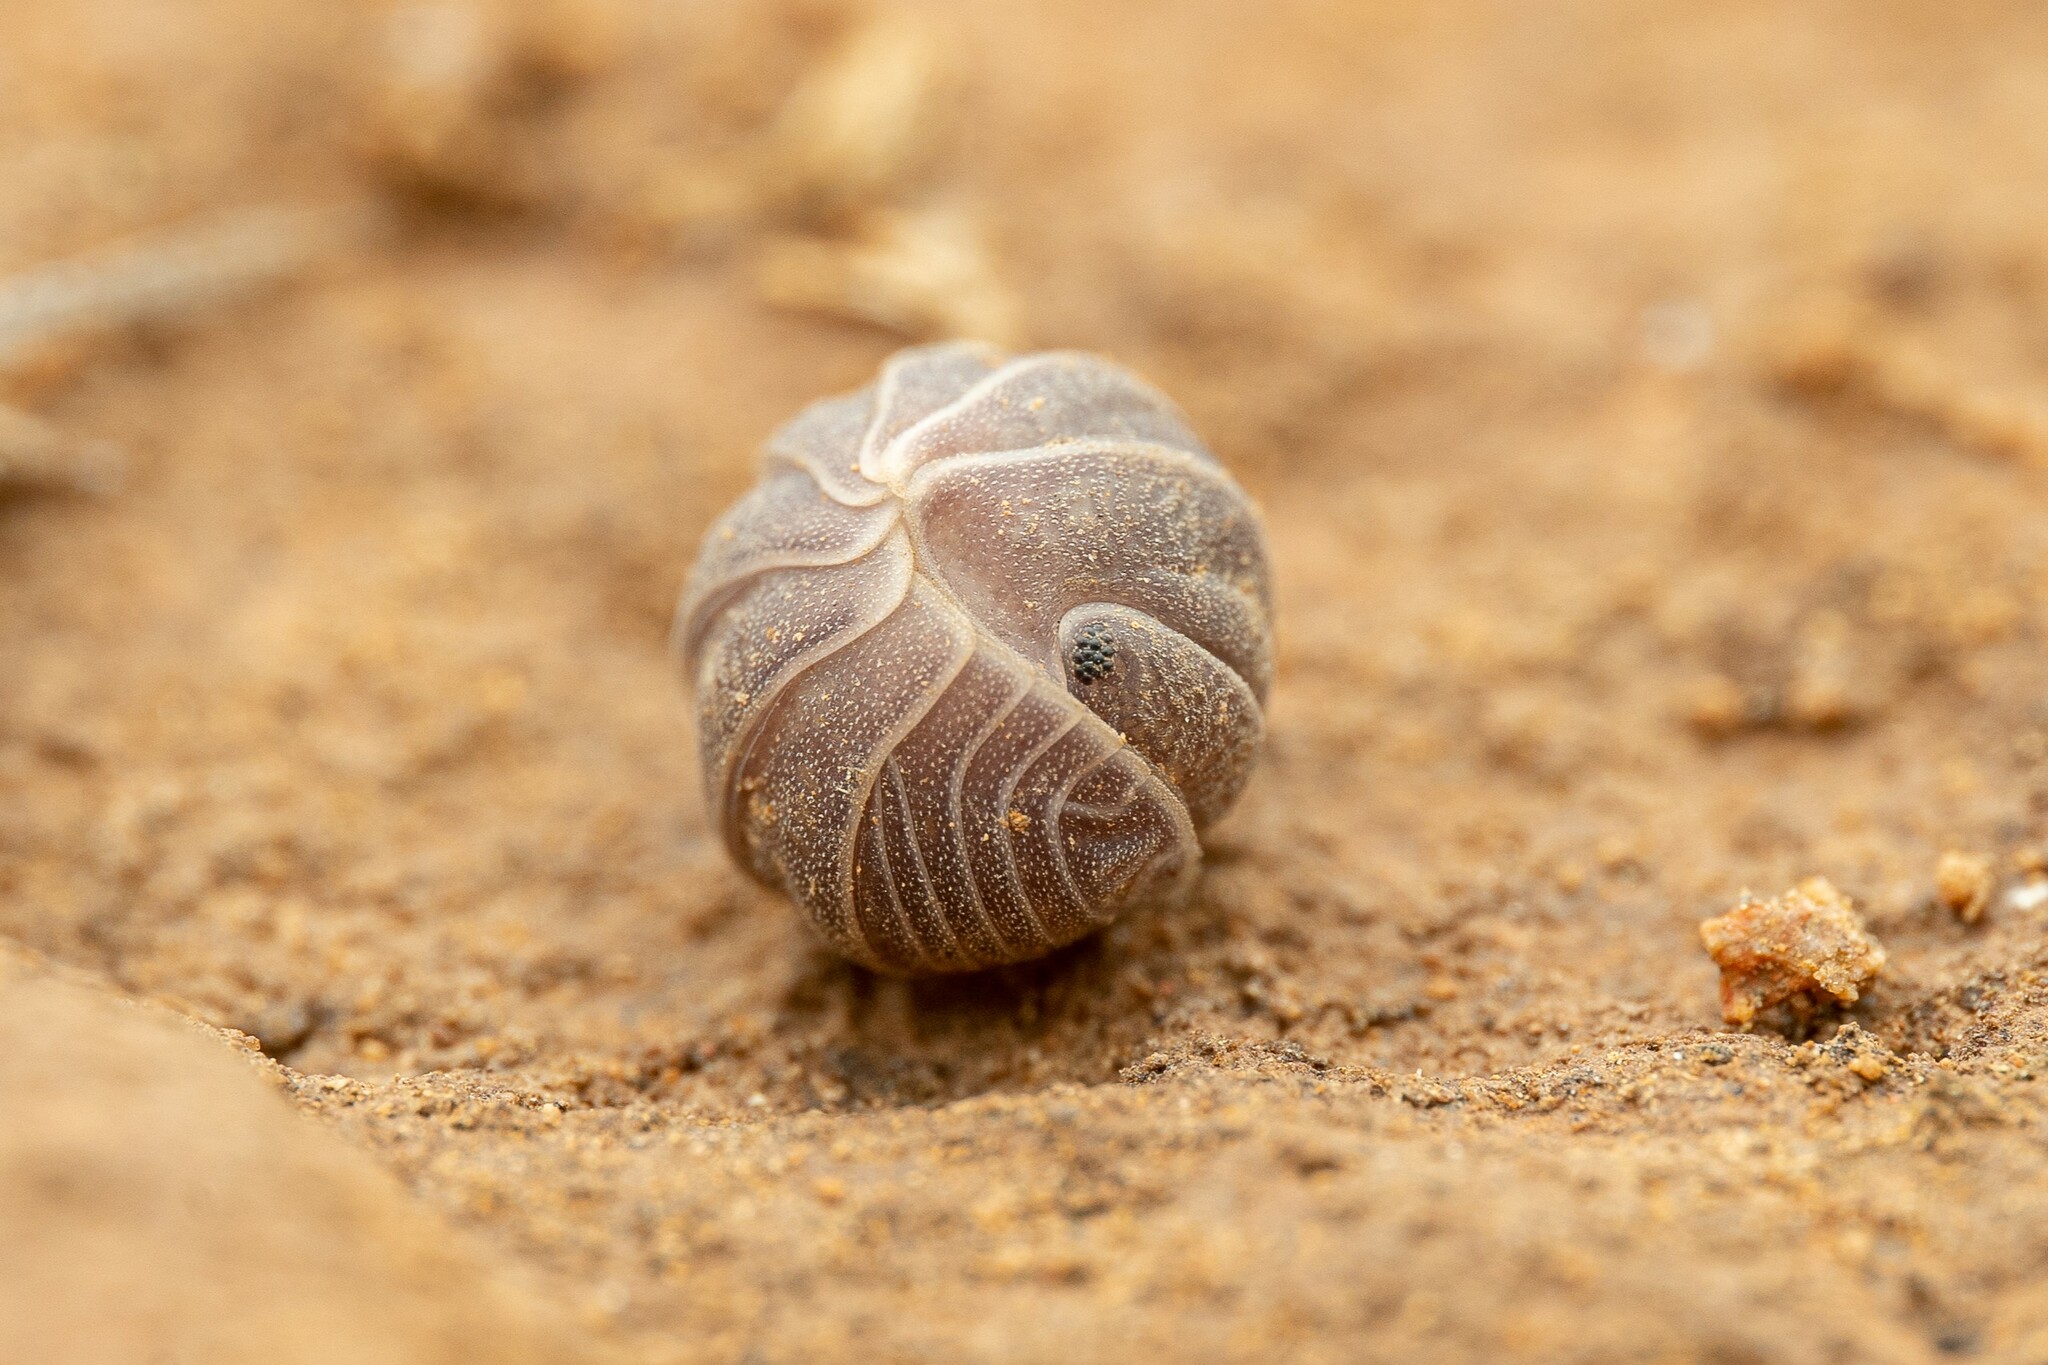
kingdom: Animalia
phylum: Arthropoda
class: Malacostraca
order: Isopoda
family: Armadillidae
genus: Venezillo
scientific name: Venezillo arizonicus
